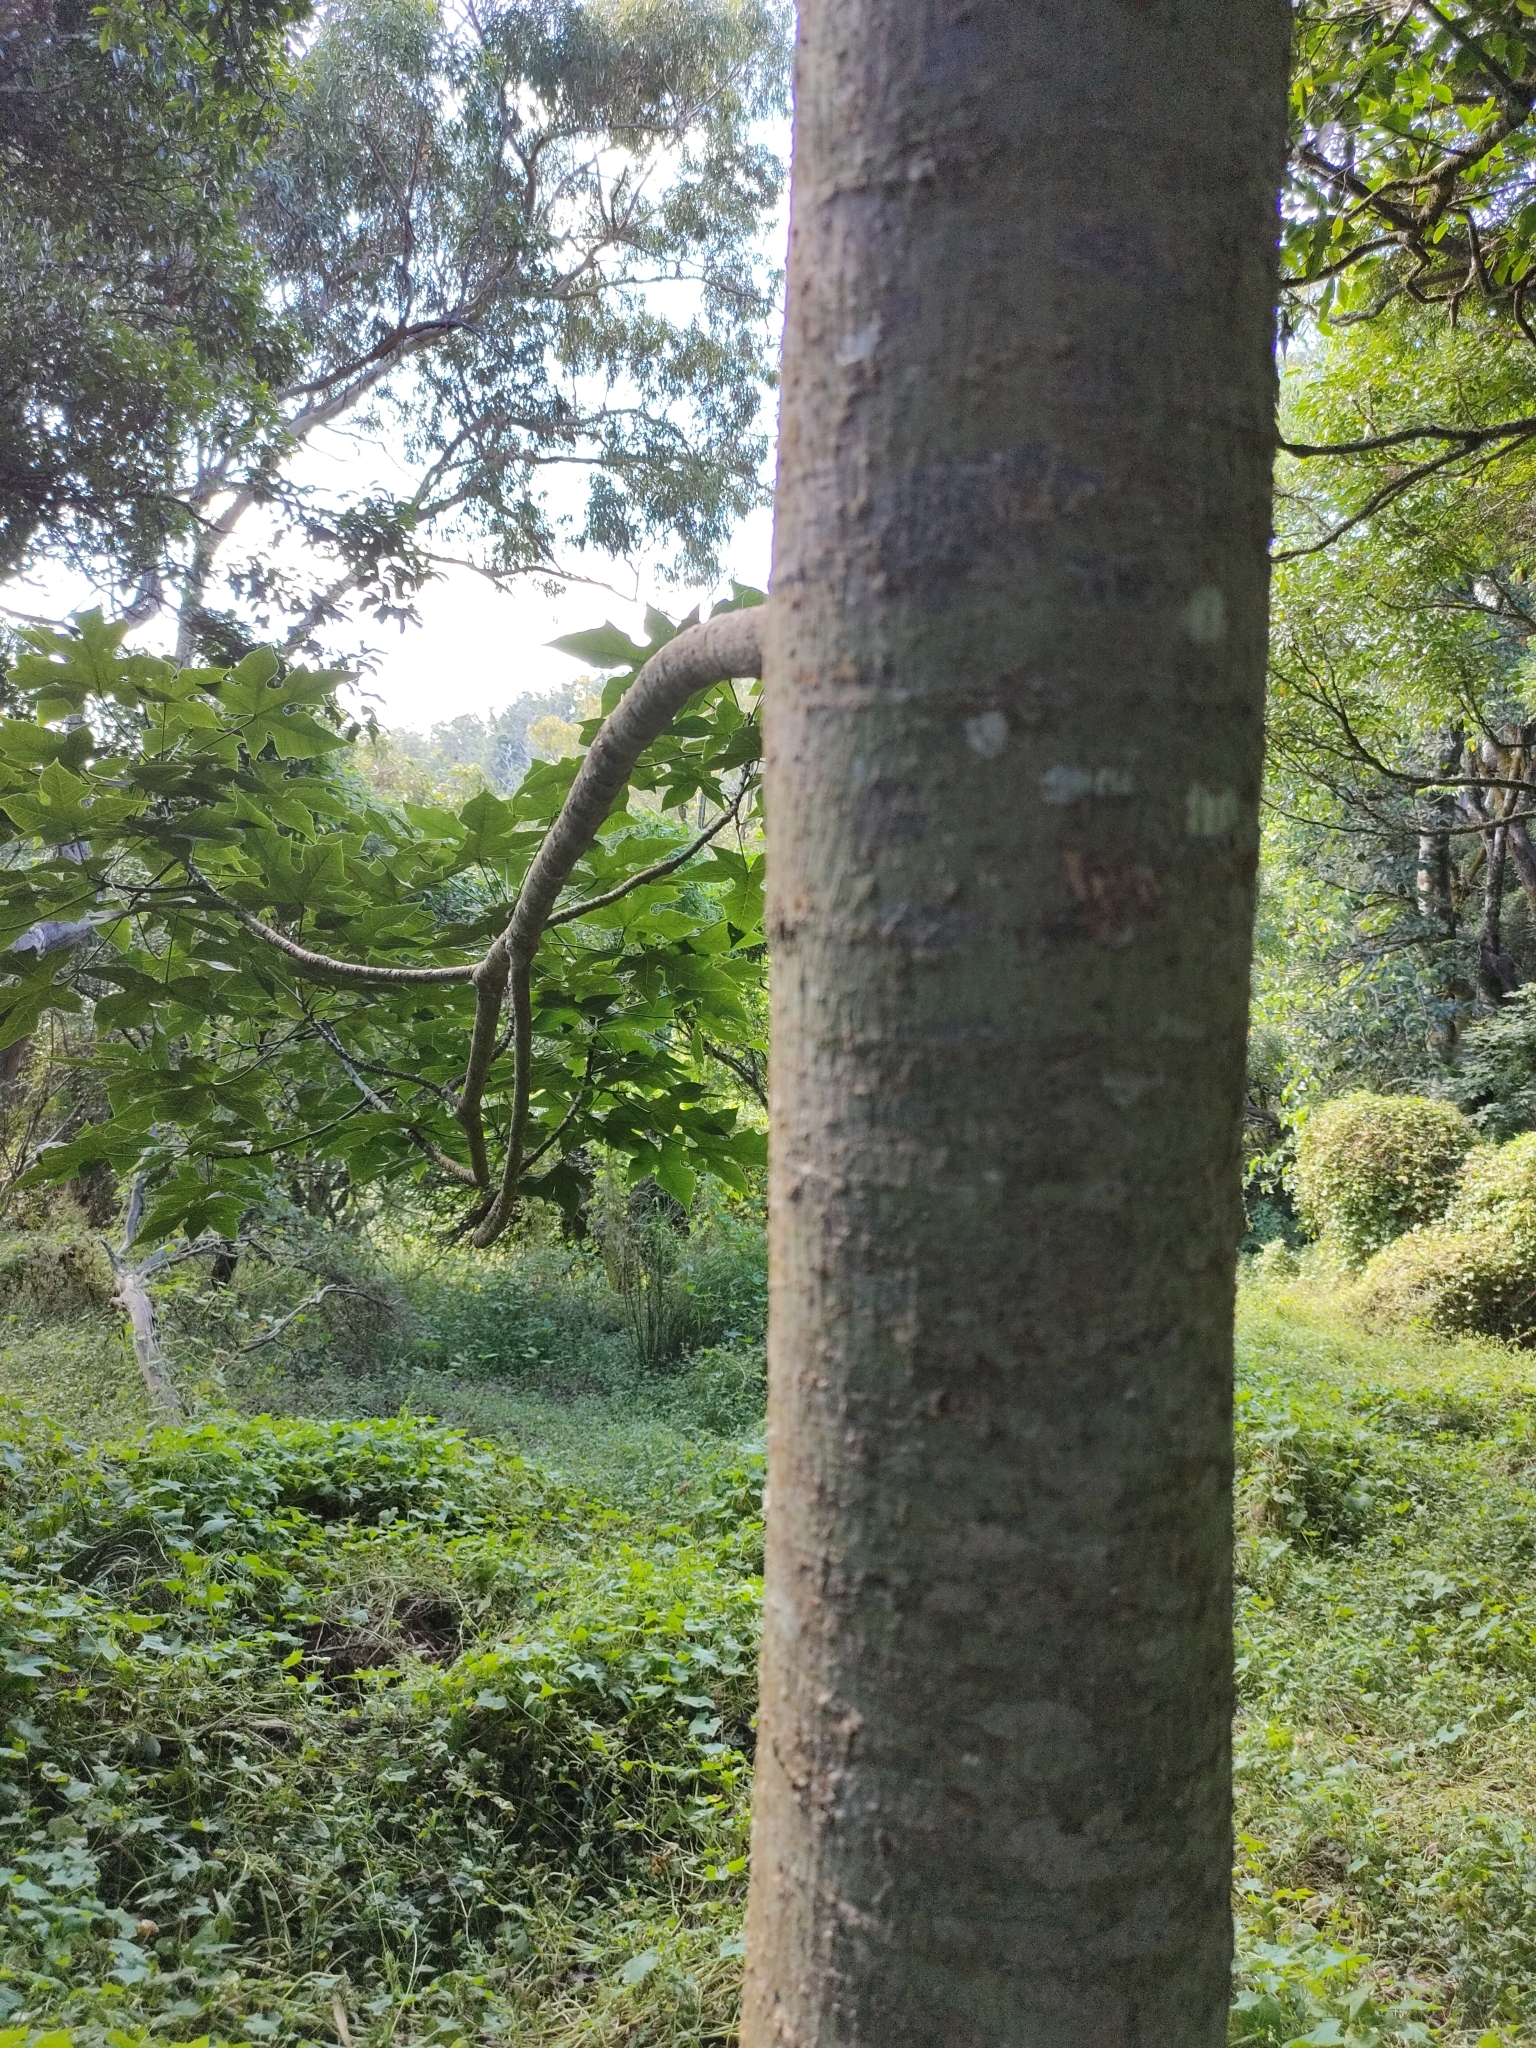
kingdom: Plantae
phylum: Tracheophyta
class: Magnoliopsida
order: Malvales
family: Malvaceae
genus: Brachychiton
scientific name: Brachychiton discolor
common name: Queensland lacebark
